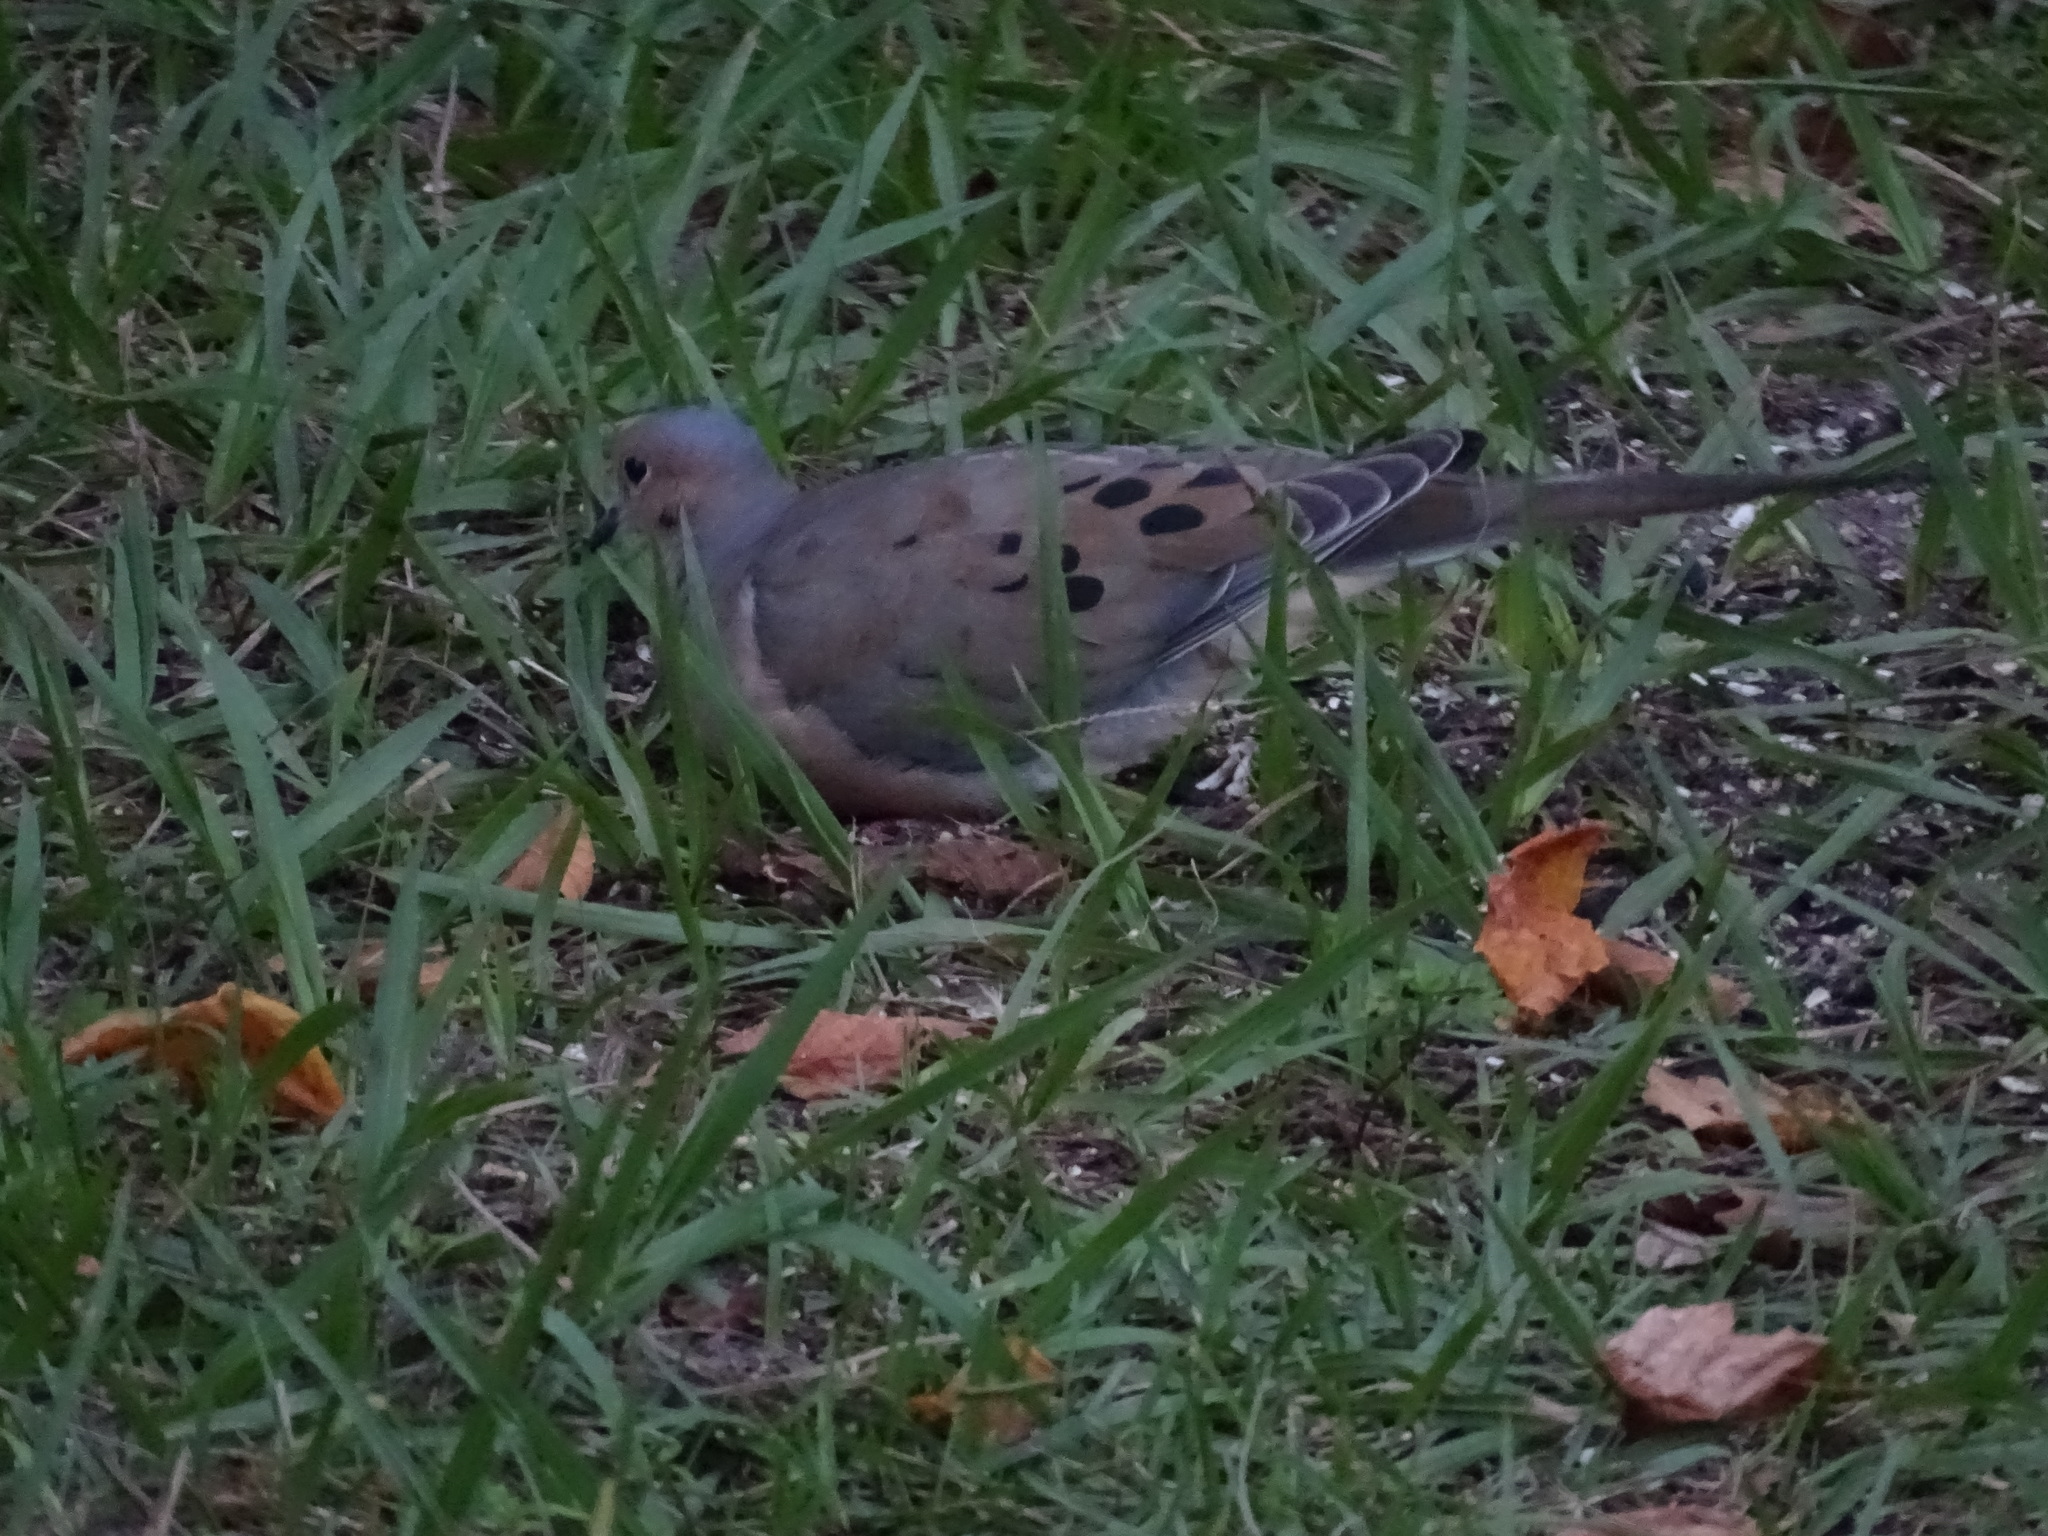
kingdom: Animalia
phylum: Chordata
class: Aves
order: Columbiformes
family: Columbidae
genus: Zenaida
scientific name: Zenaida macroura
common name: Mourning dove
